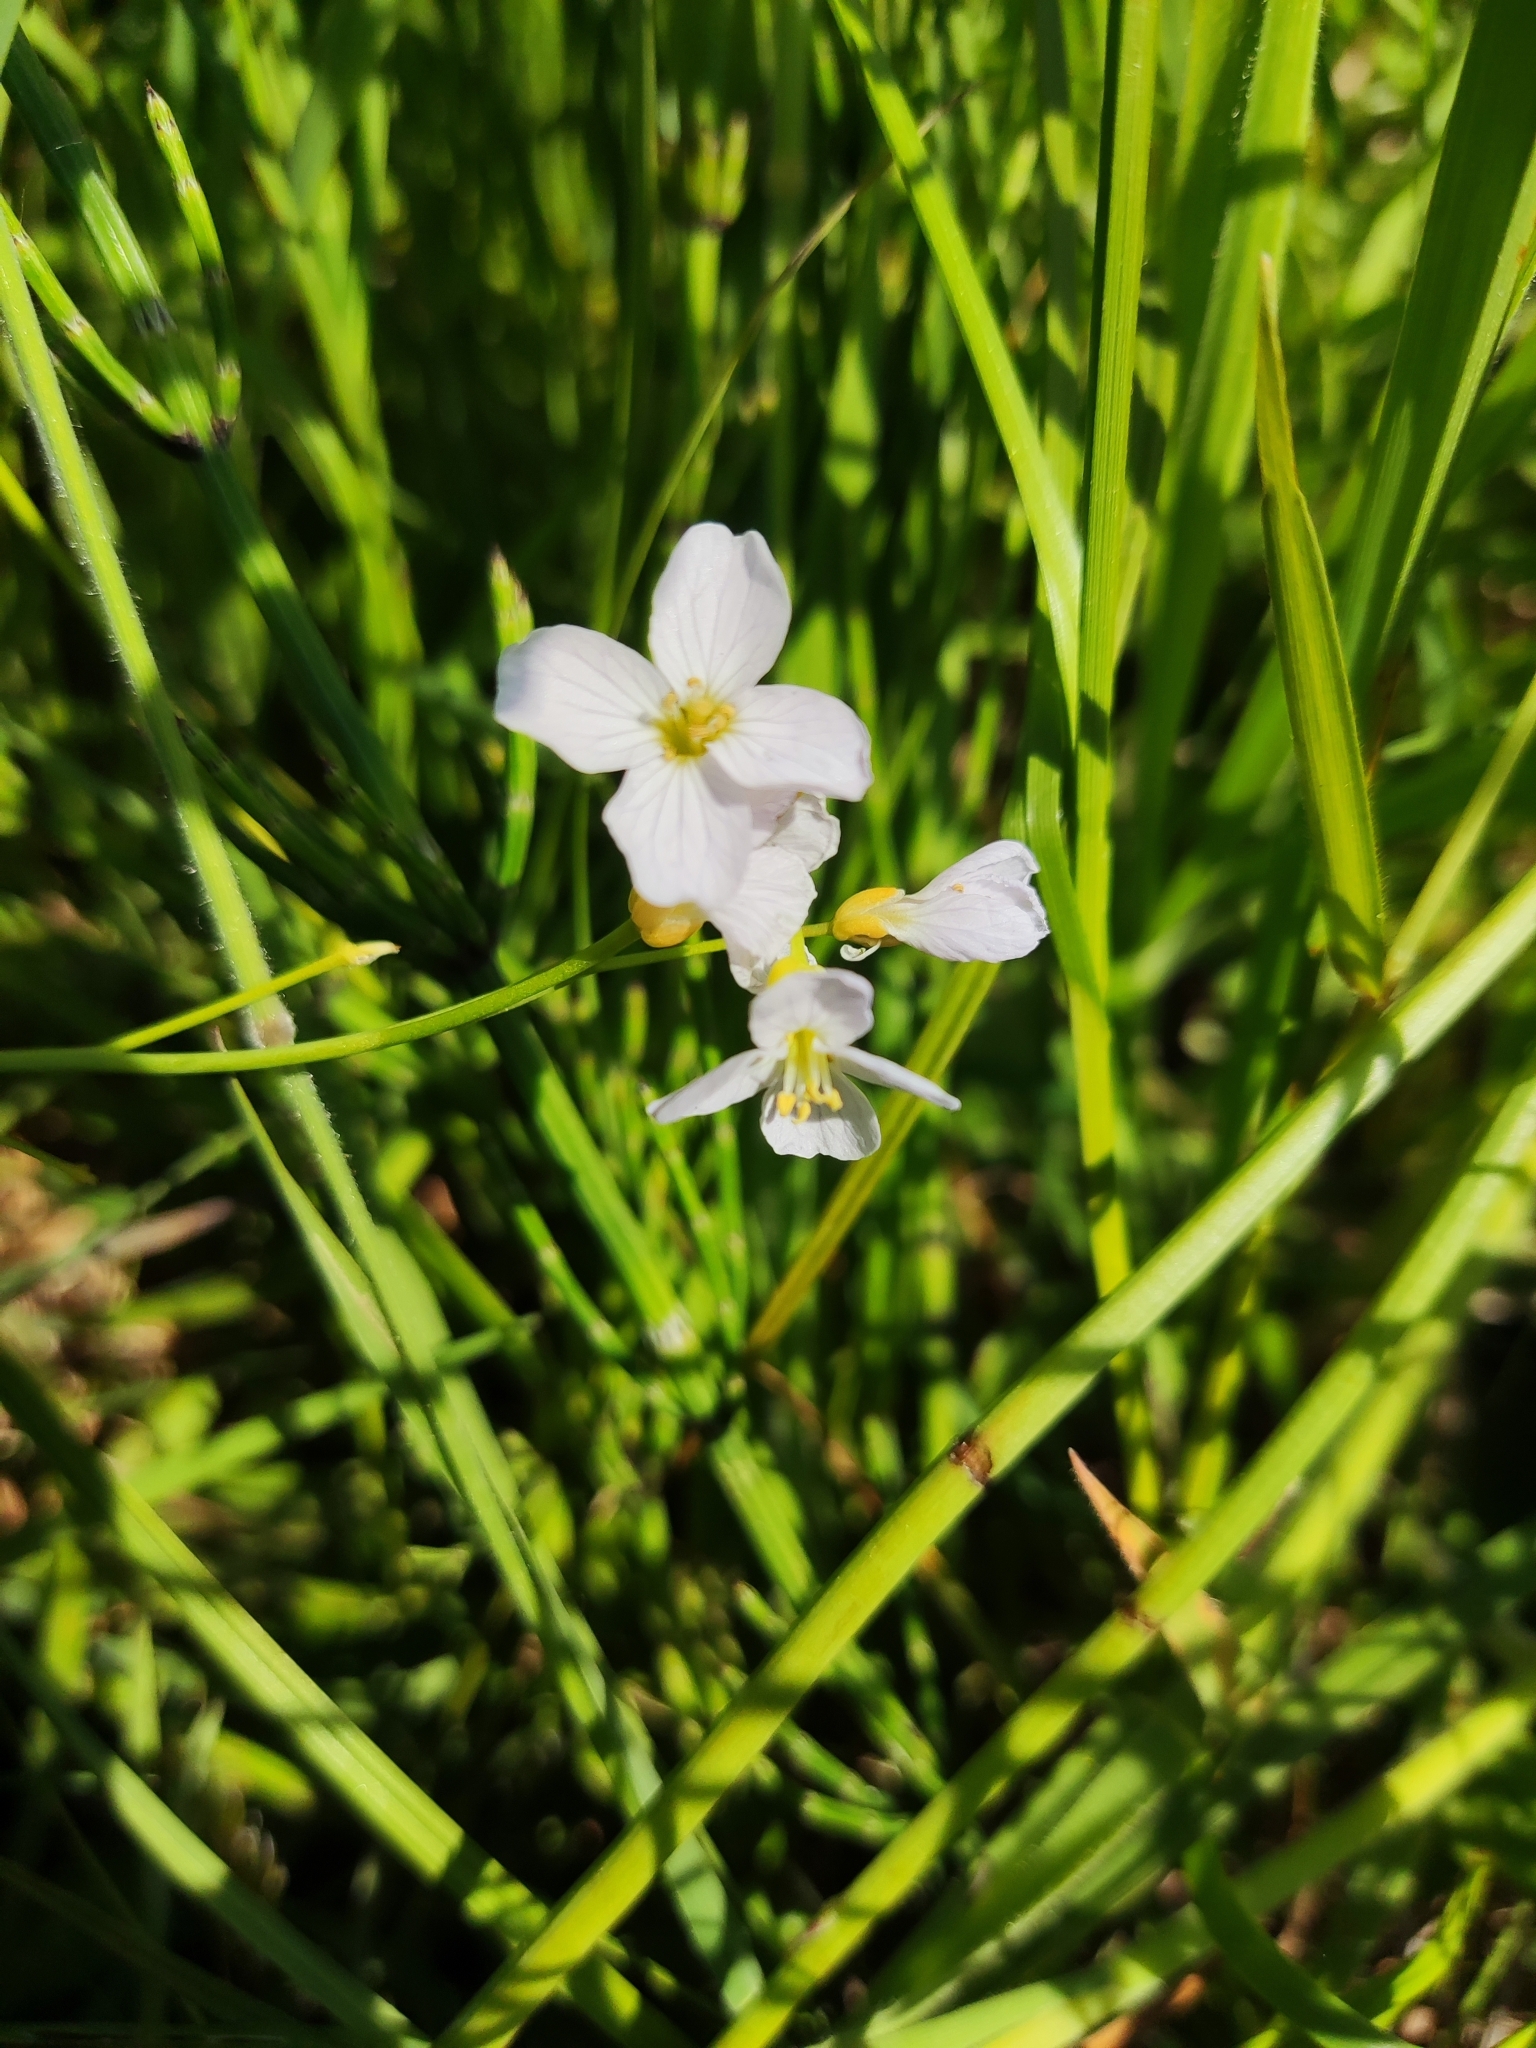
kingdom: Plantae
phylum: Tracheophyta
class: Magnoliopsida
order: Brassicales
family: Brassicaceae
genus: Cardamine
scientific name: Cardamine pratensis
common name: Cuckoo flower
